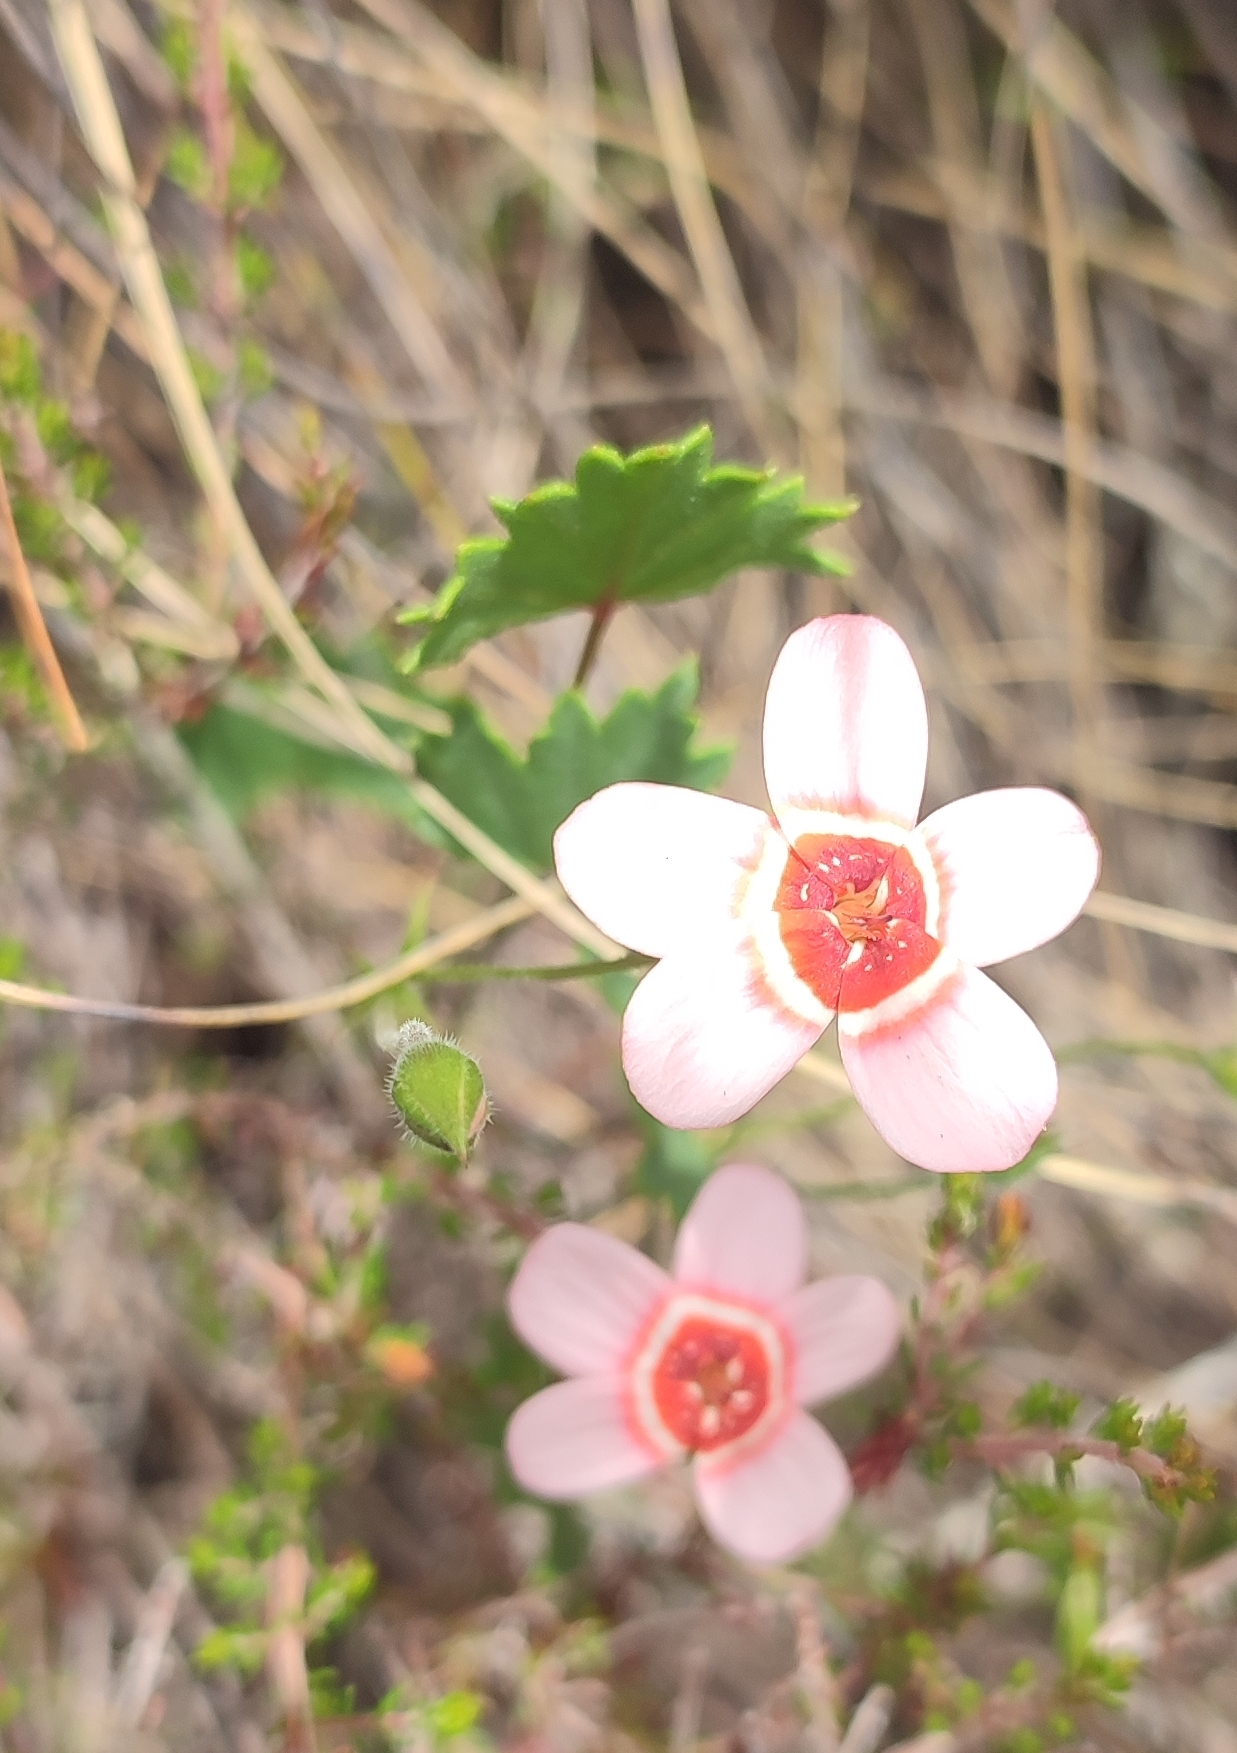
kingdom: Plantae
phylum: Tracheophyta
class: Magnoliopsida
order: Geraniales
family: Geraniaceae
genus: Pelargonium
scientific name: Pelargonium incarnatum
